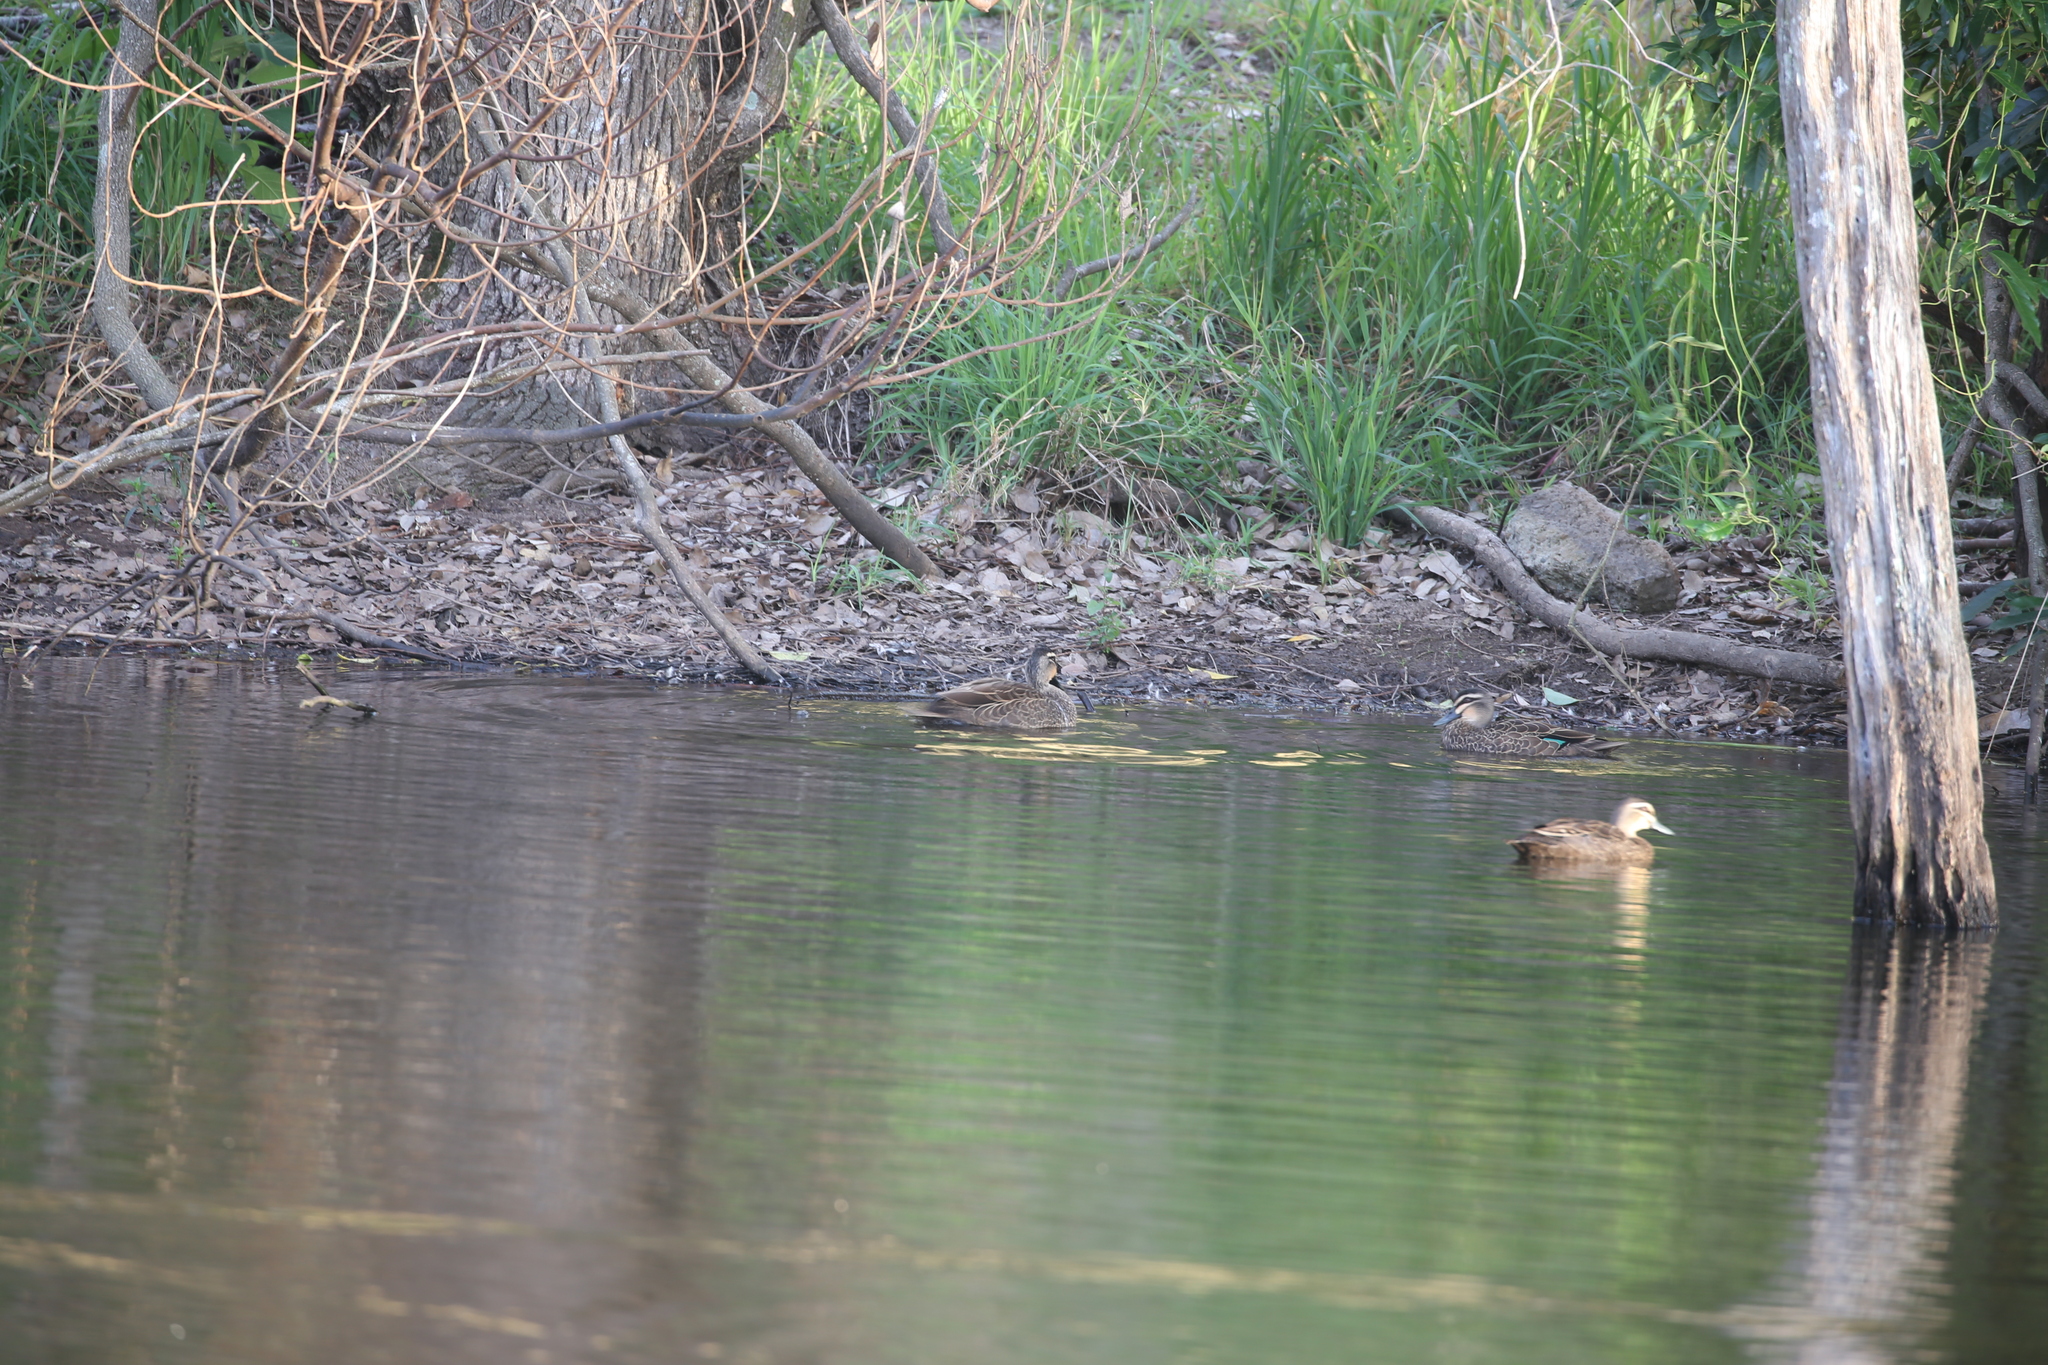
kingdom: Animalia
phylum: Chordata
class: Aves
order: Anseriformes
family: Anatidae
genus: Anas
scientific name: Anas superciliosa
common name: Pacific black duck
